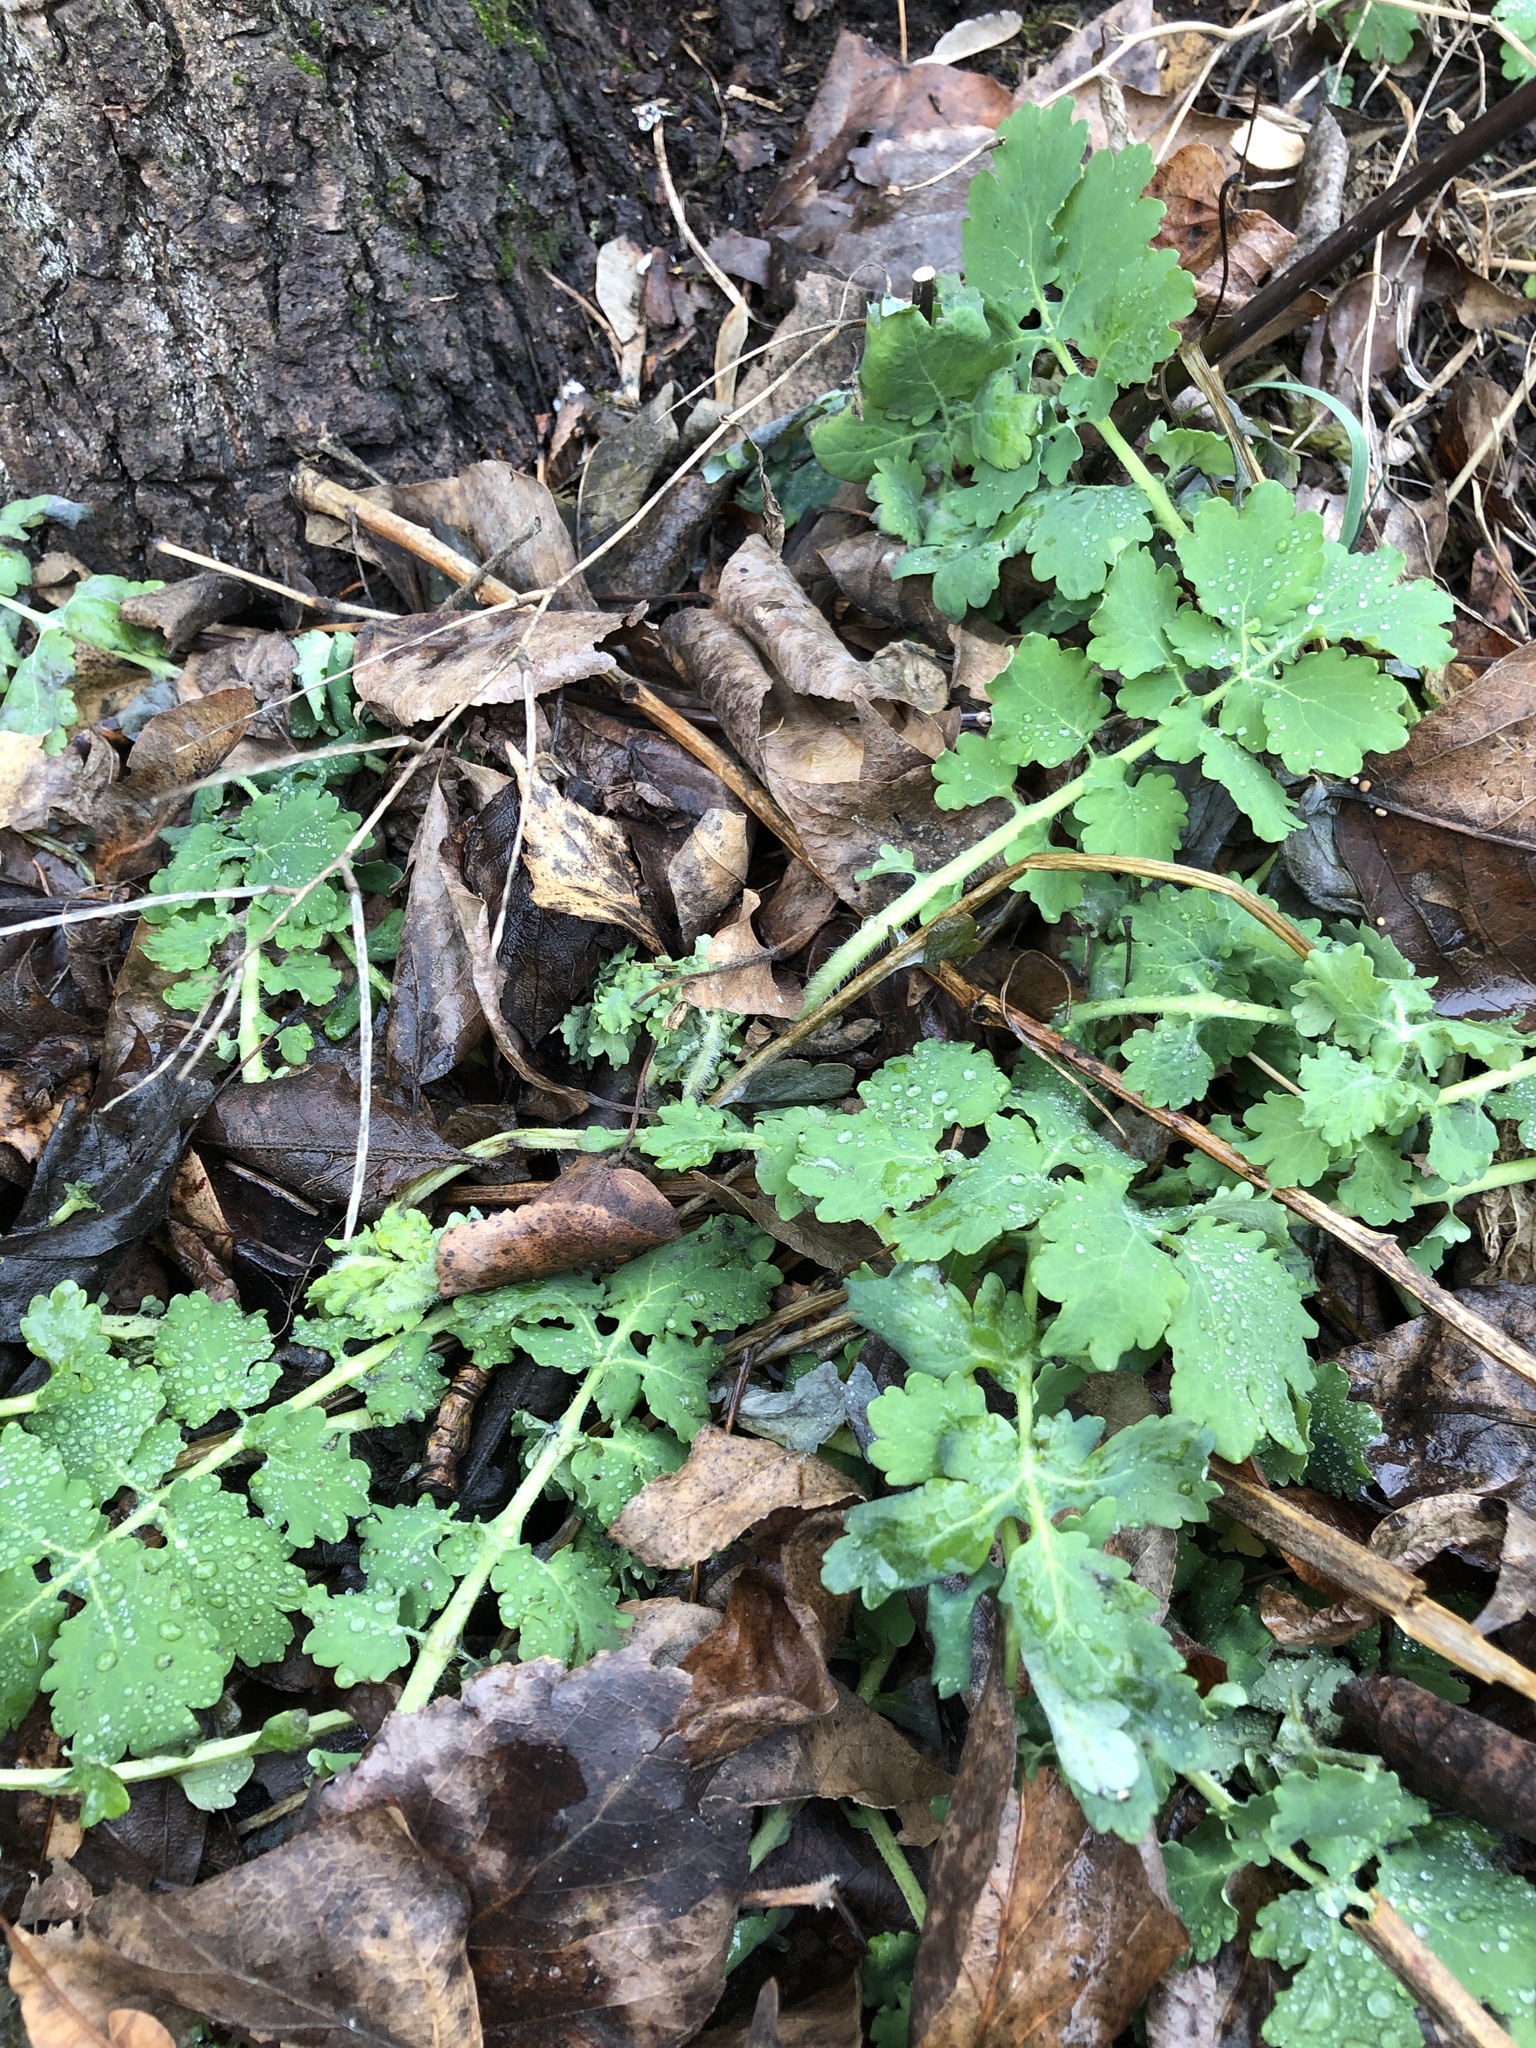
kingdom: Plantae
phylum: Tracheophyta
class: Magnoliopsida
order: Ranunculales
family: Papaveraceae
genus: Chelidonium
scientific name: Chelidonium majus
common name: Greater celandine
